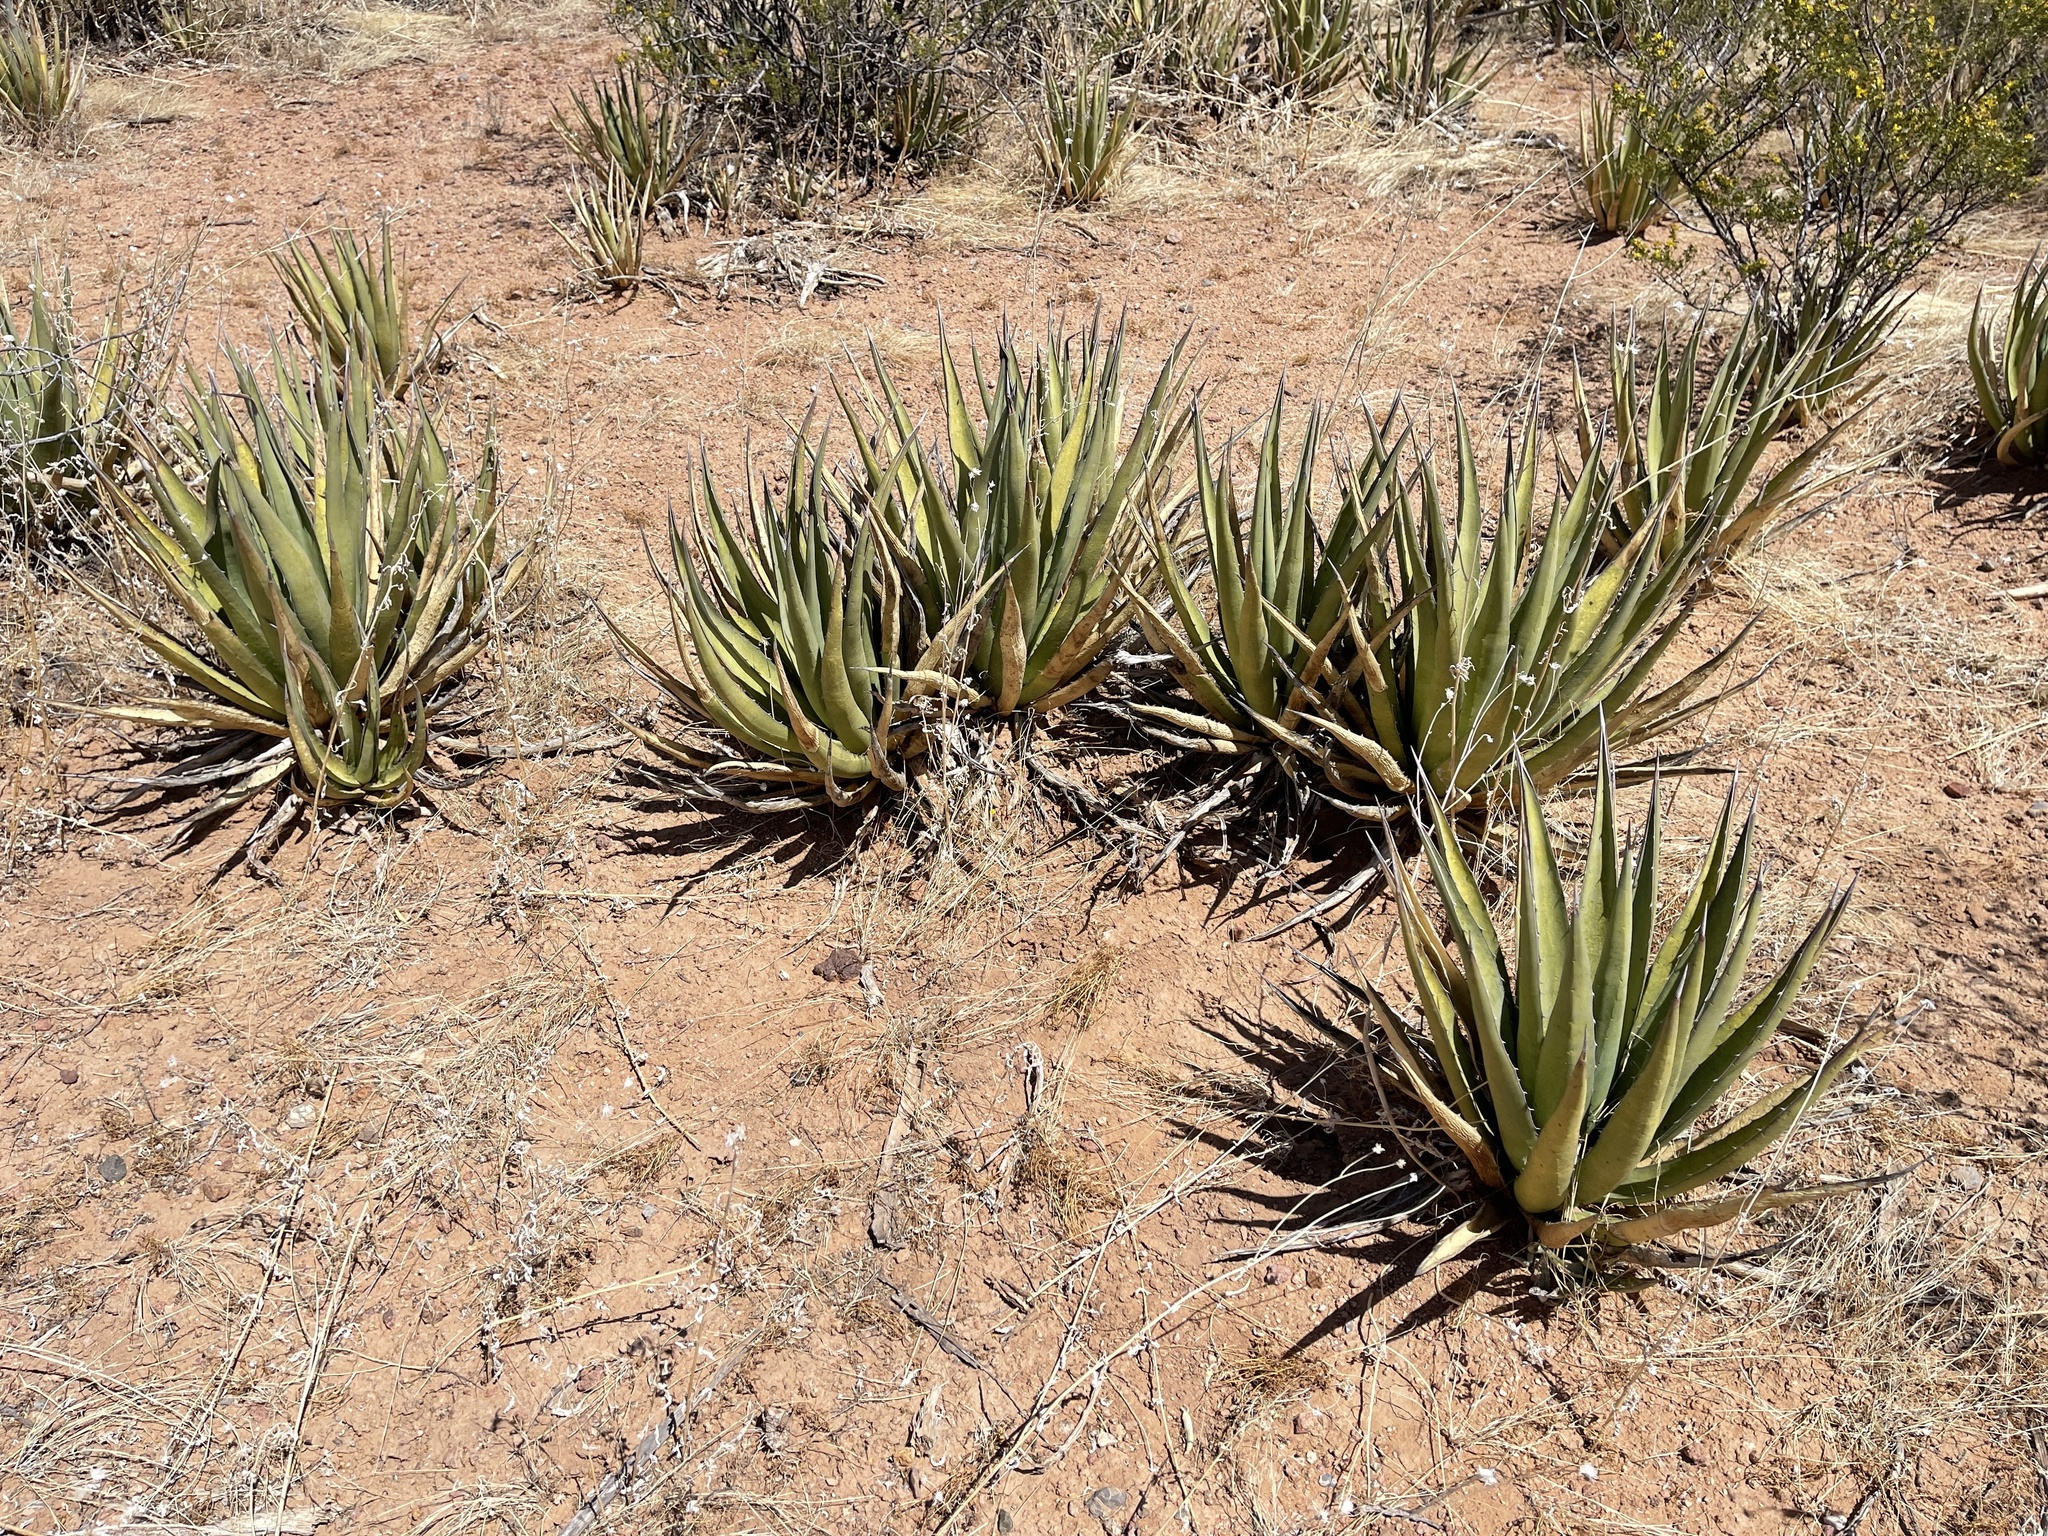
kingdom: Plantae
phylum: Tracheophyta
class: Liliopsida
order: Asparagales
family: Asparagaceae
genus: Agave
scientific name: Agave lechuguilla
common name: Lecheguilla agave
